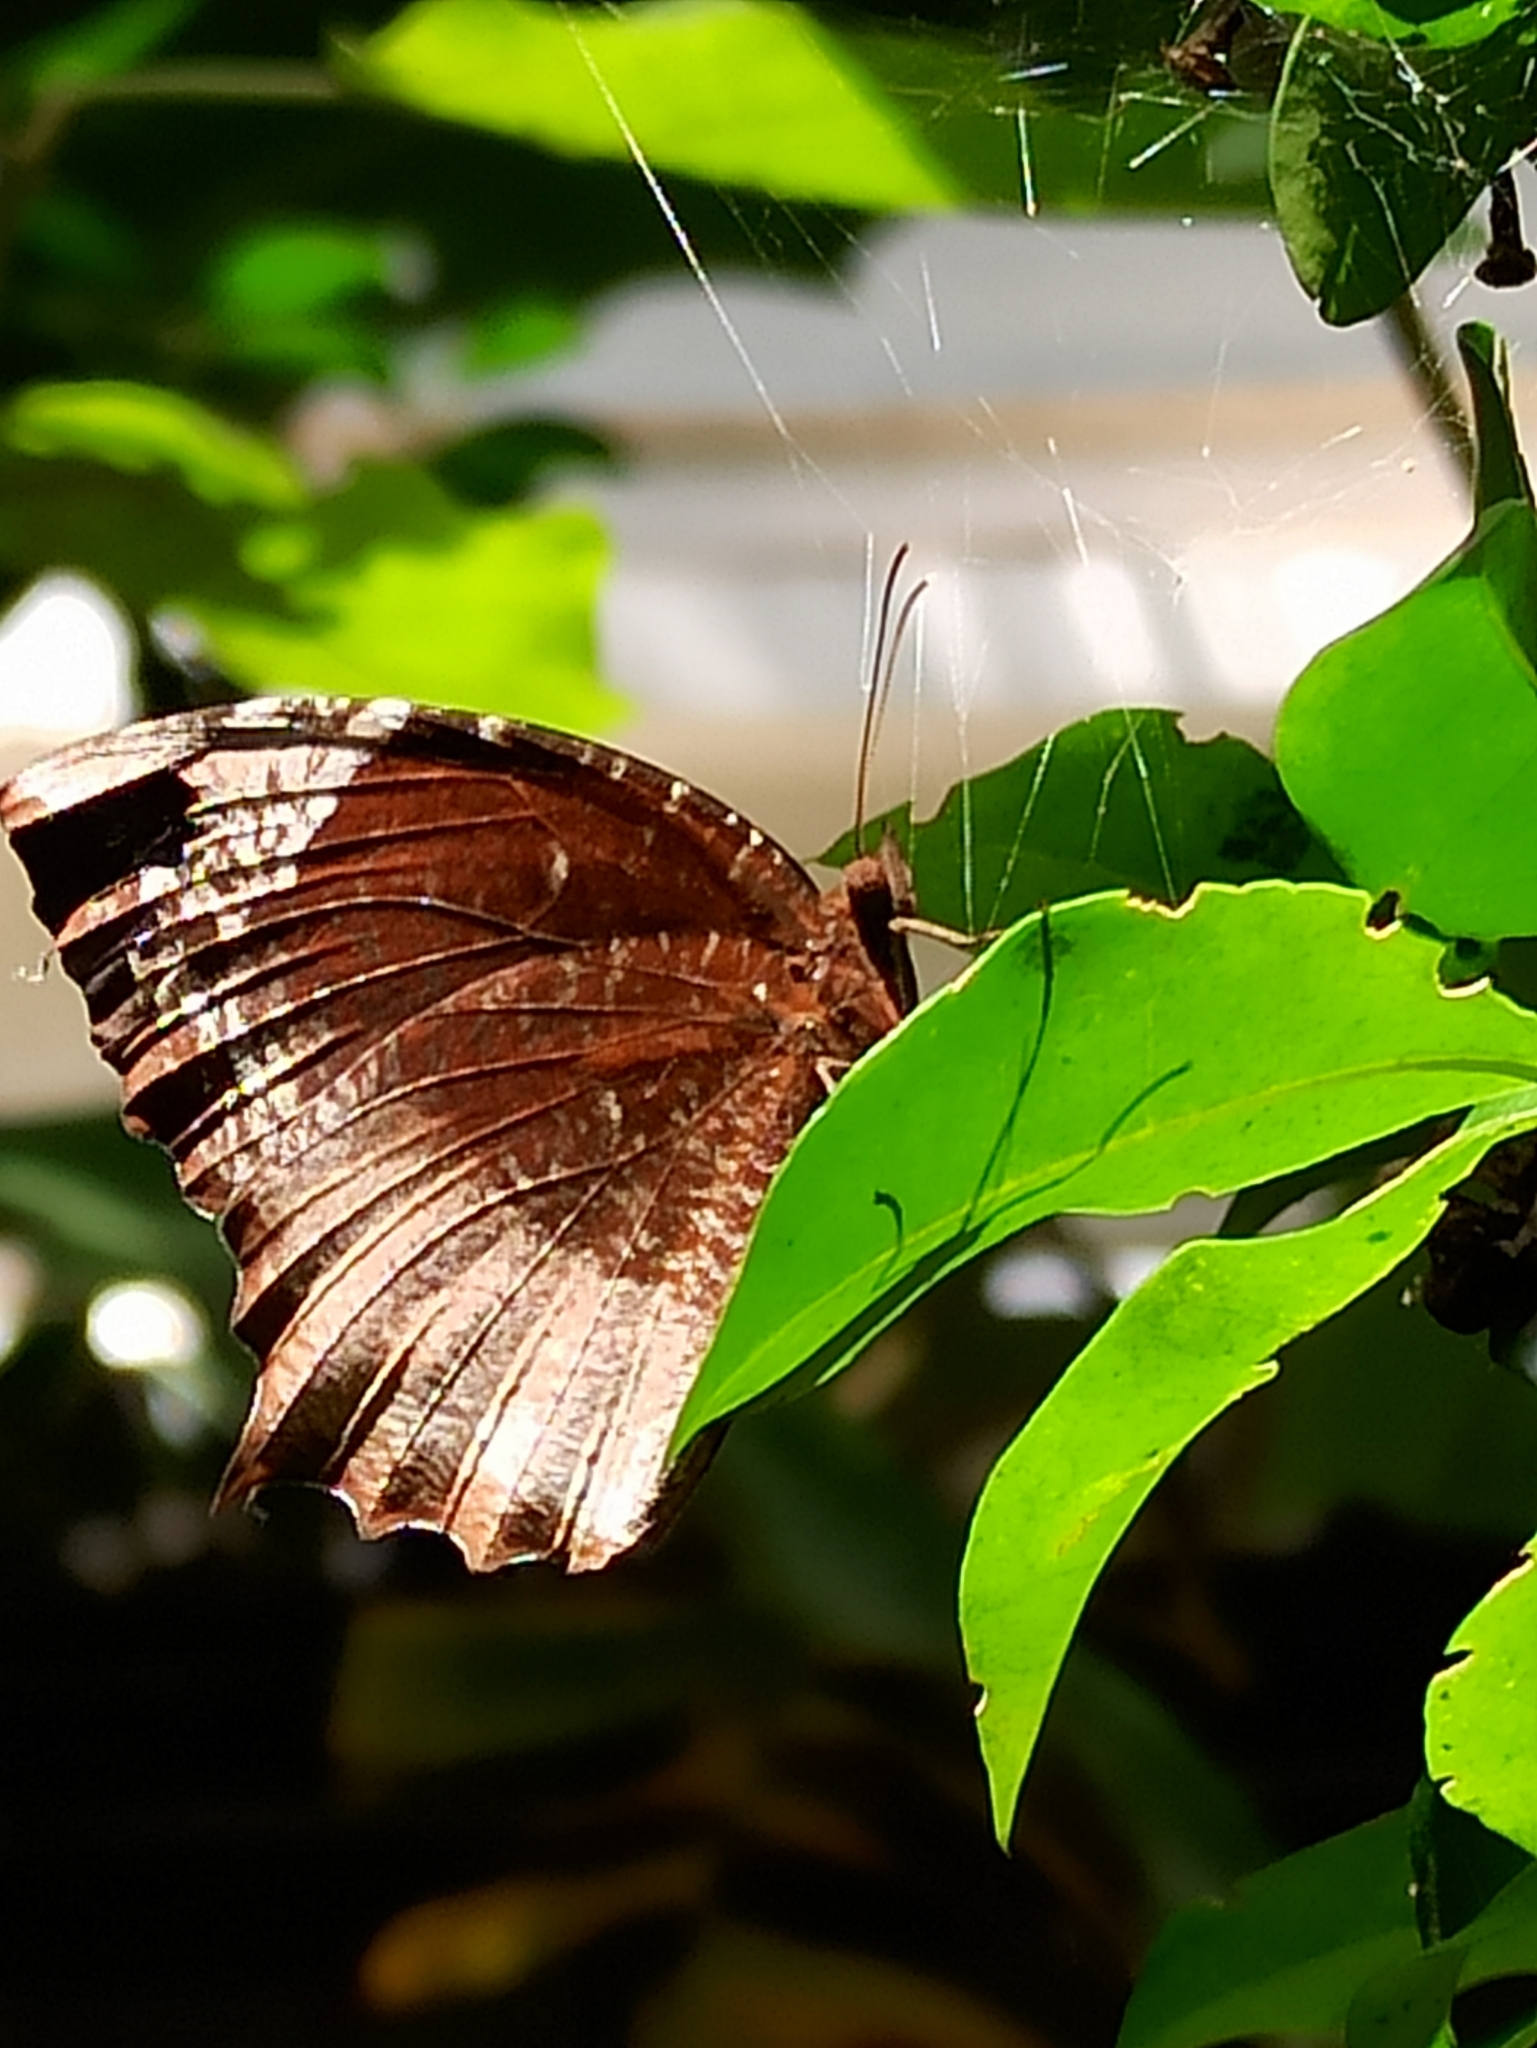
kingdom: Animalia
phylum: Arthropoda
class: Insecta
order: Lepidoptera
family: Nymphalidae
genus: Elymnias
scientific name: Elymnias caudata
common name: Tailed palmfly
